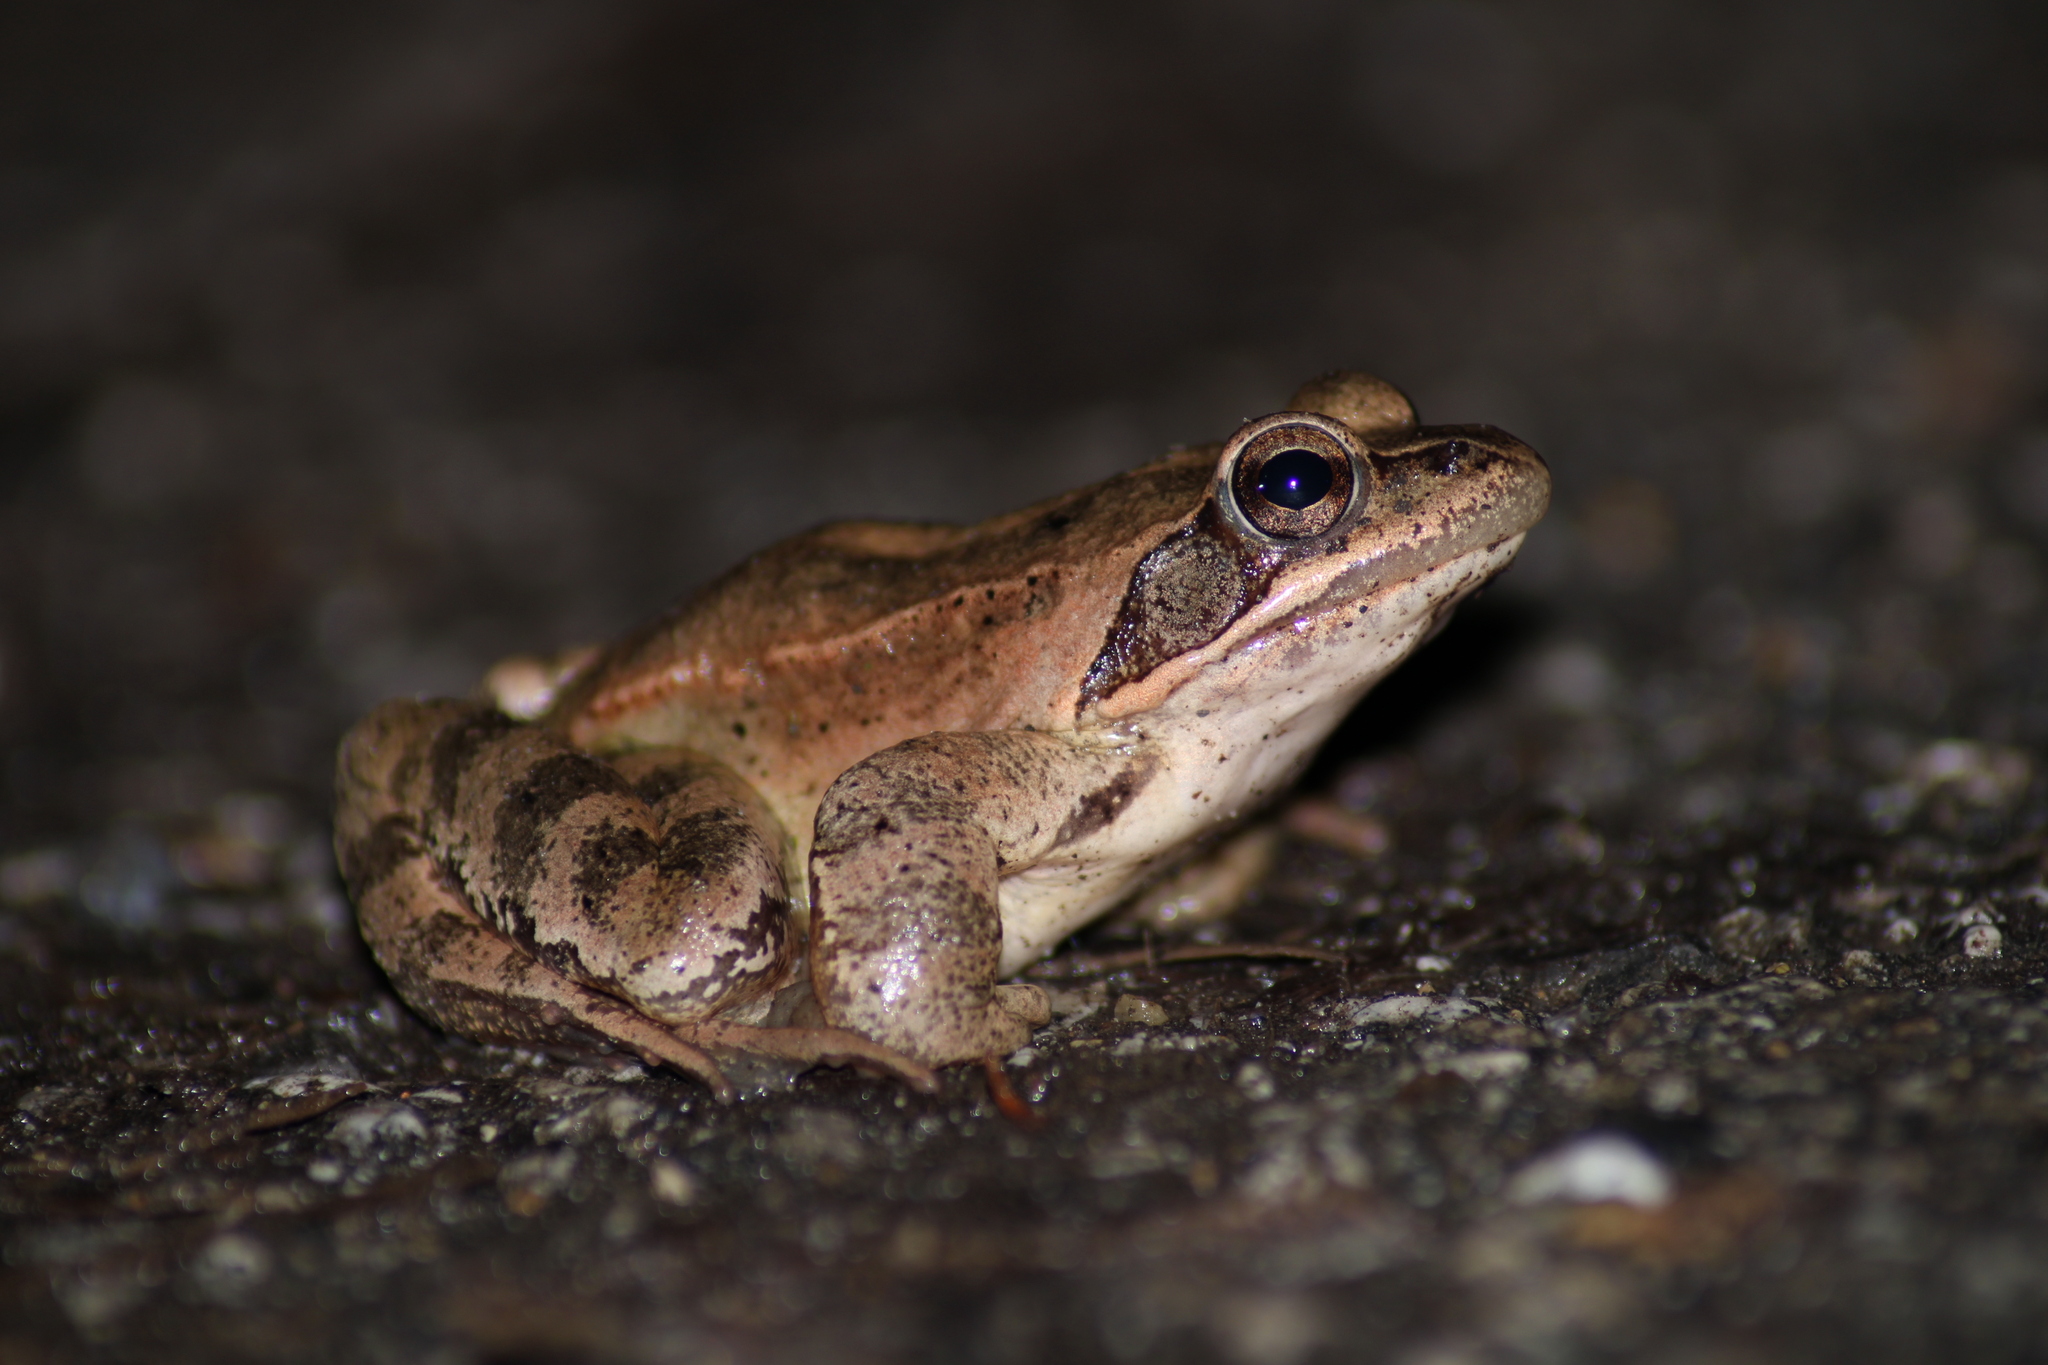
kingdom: Animalia
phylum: Chordata
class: Amphibia
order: Anura
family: Ranidae
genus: Rana
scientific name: Rana dalmatina
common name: Agile frog
